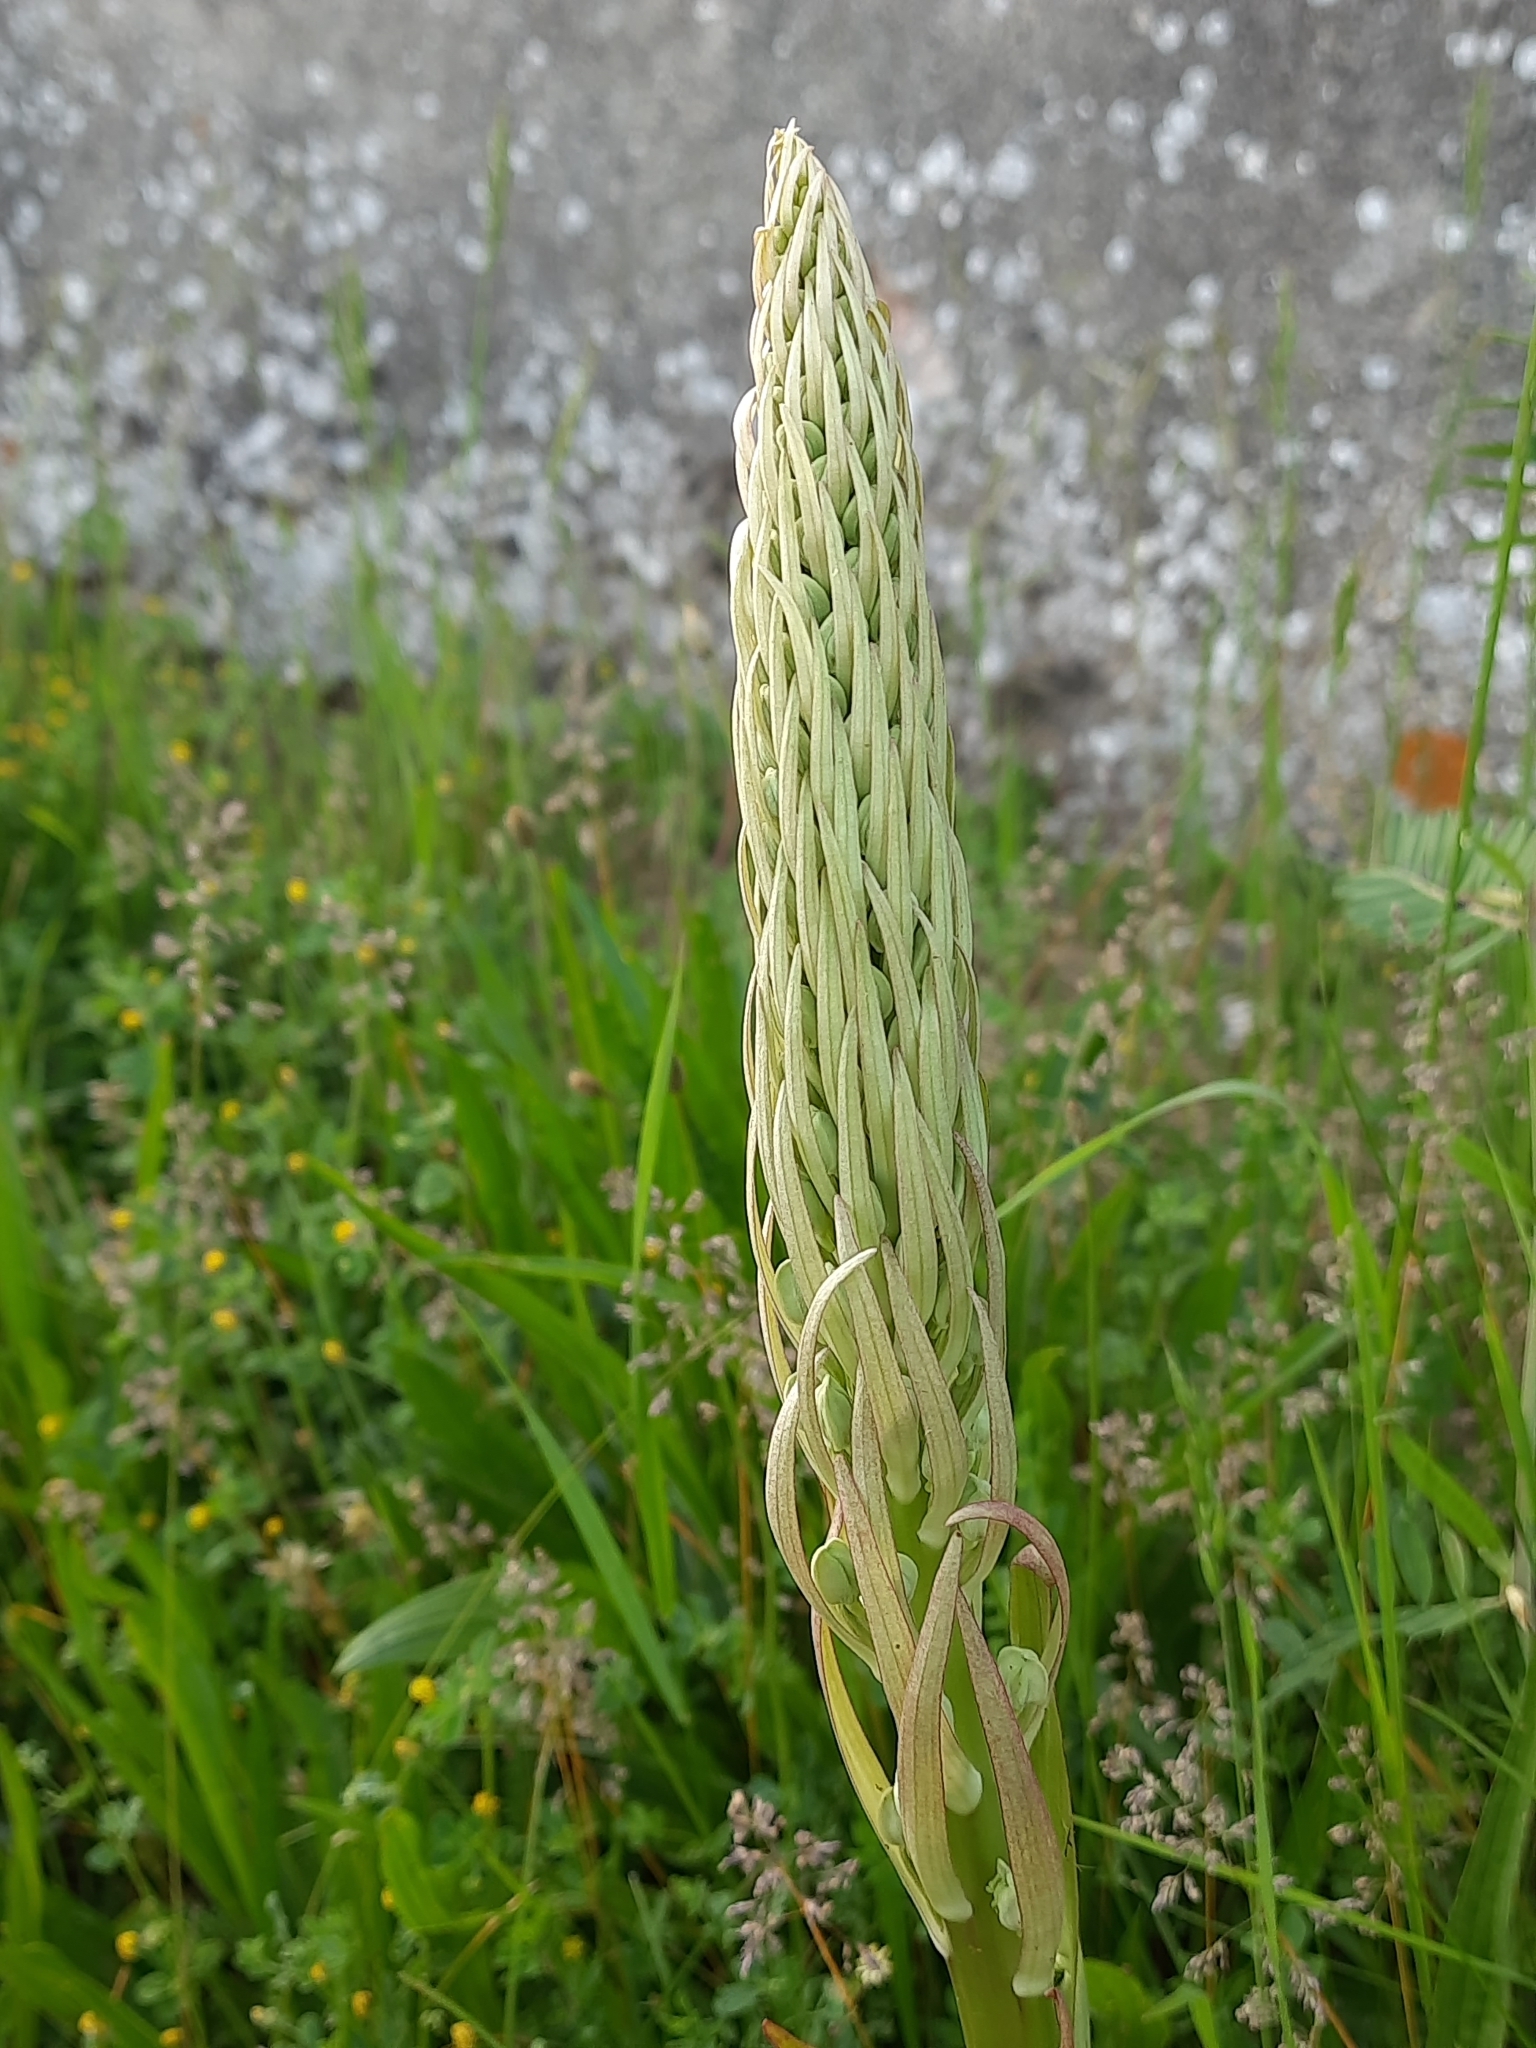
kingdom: Plantae
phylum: Tracheophyta
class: Liliopsida
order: Asparagales
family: Orchidaceae
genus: Himantoglossum
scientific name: Himantoglossum hircinum
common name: Lizard orchid
